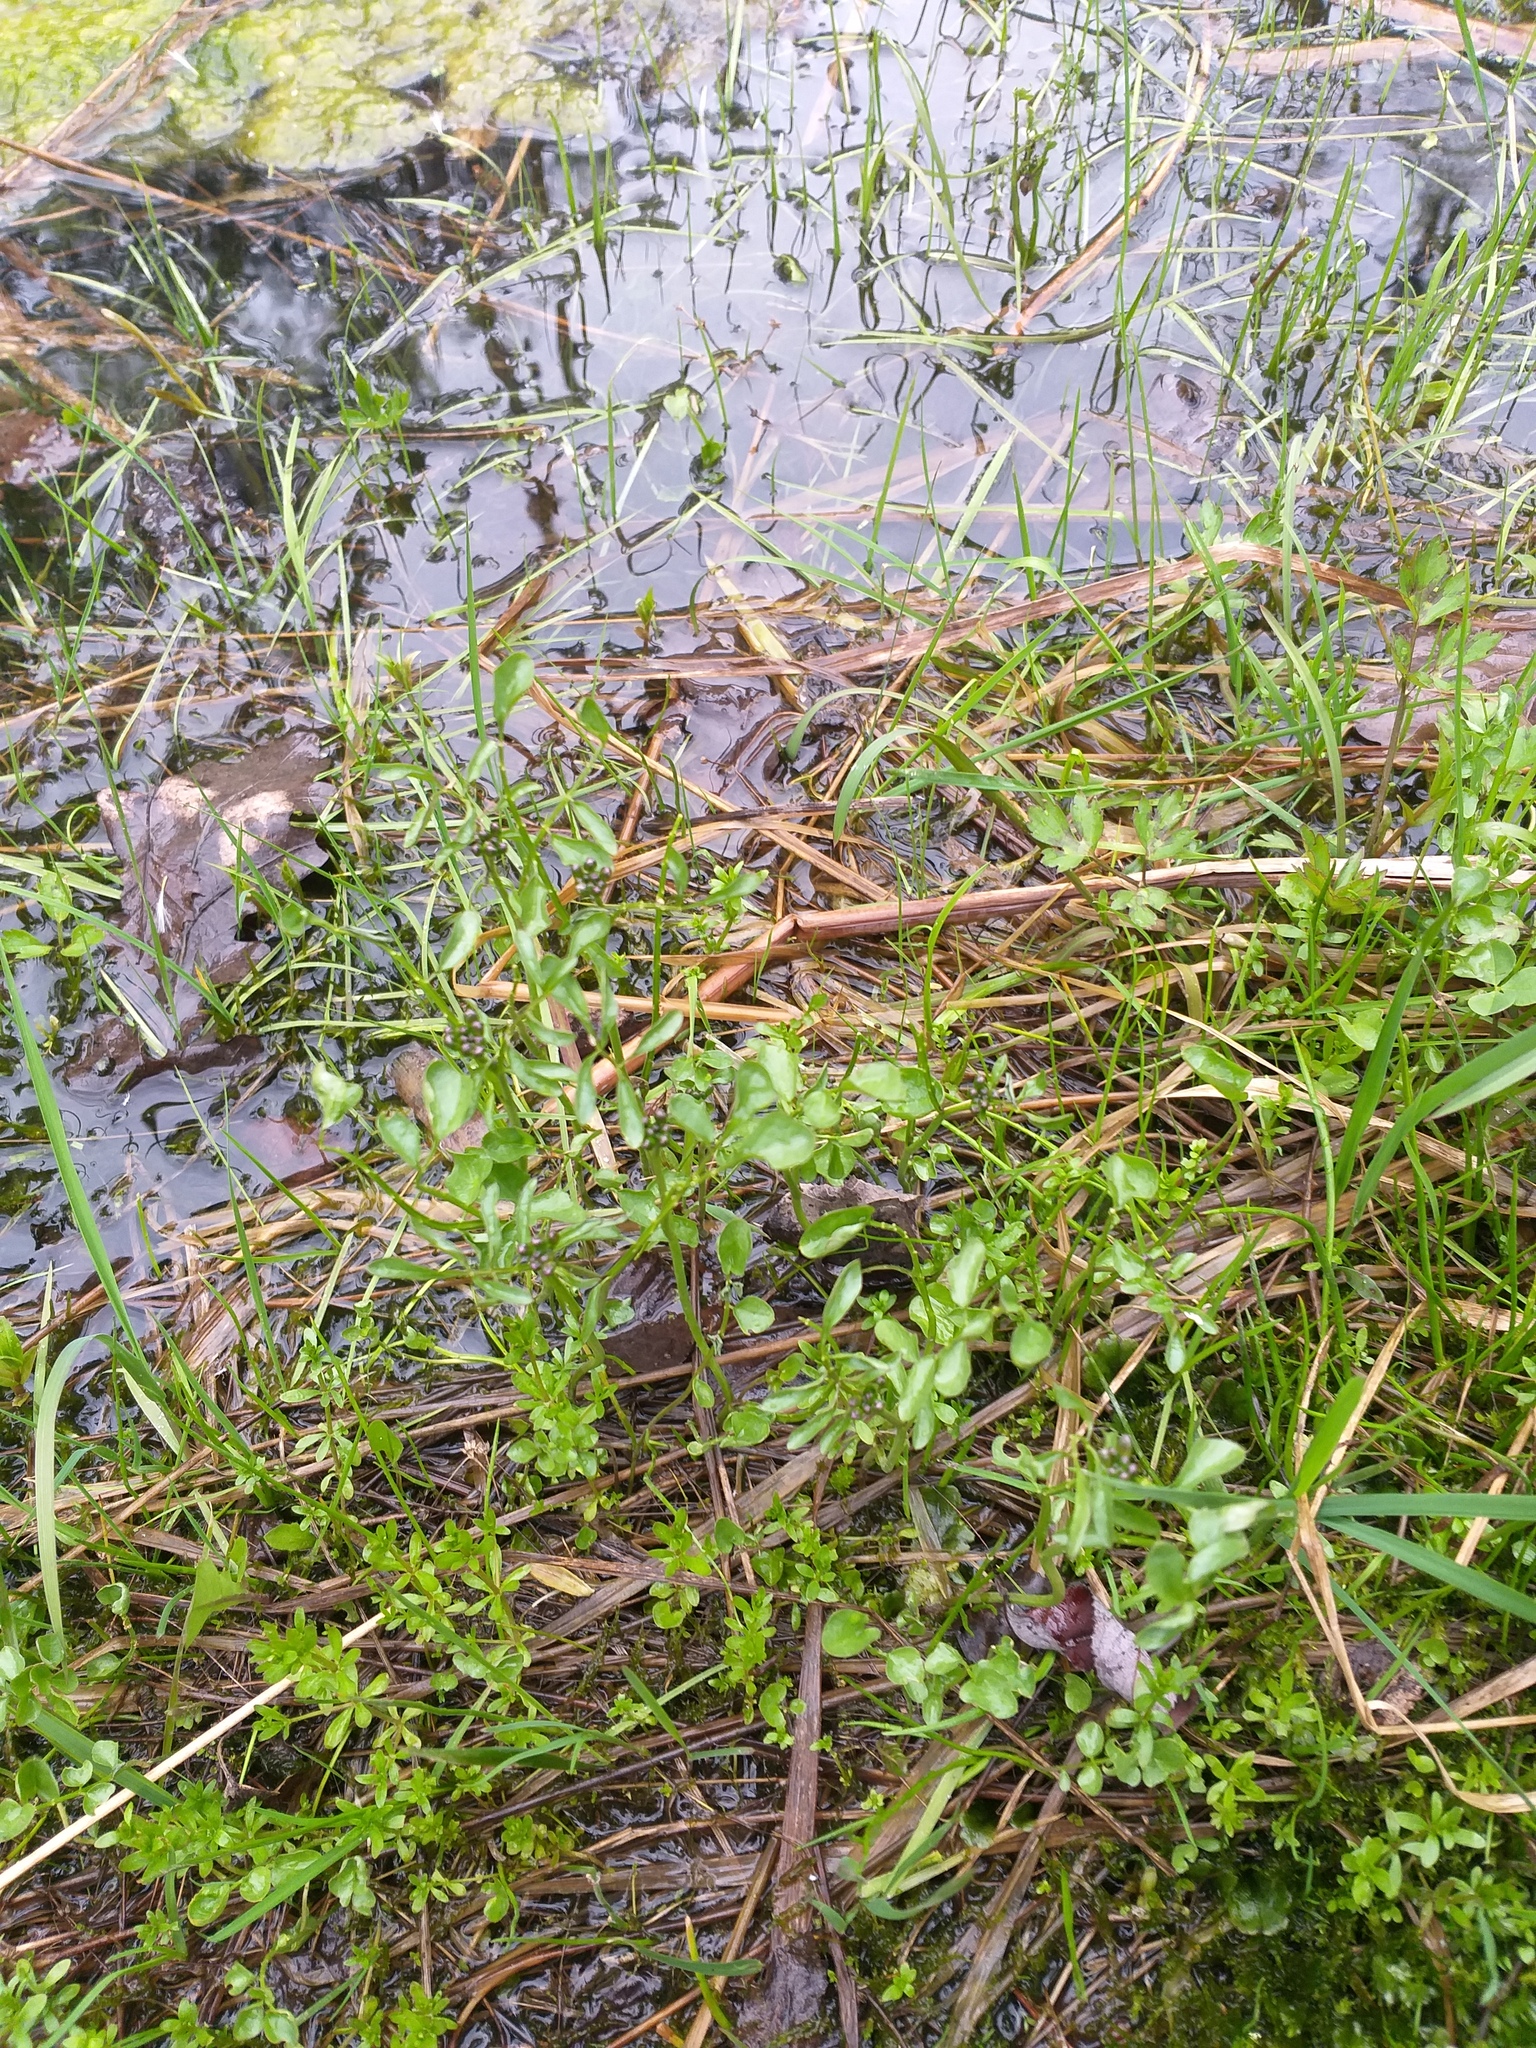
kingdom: Plantae
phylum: Tracheophyta
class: Magnoliopsida
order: Brassicales
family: Brassicaceae
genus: Cardamine
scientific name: Cardamine dentata
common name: Toothed bittercress
